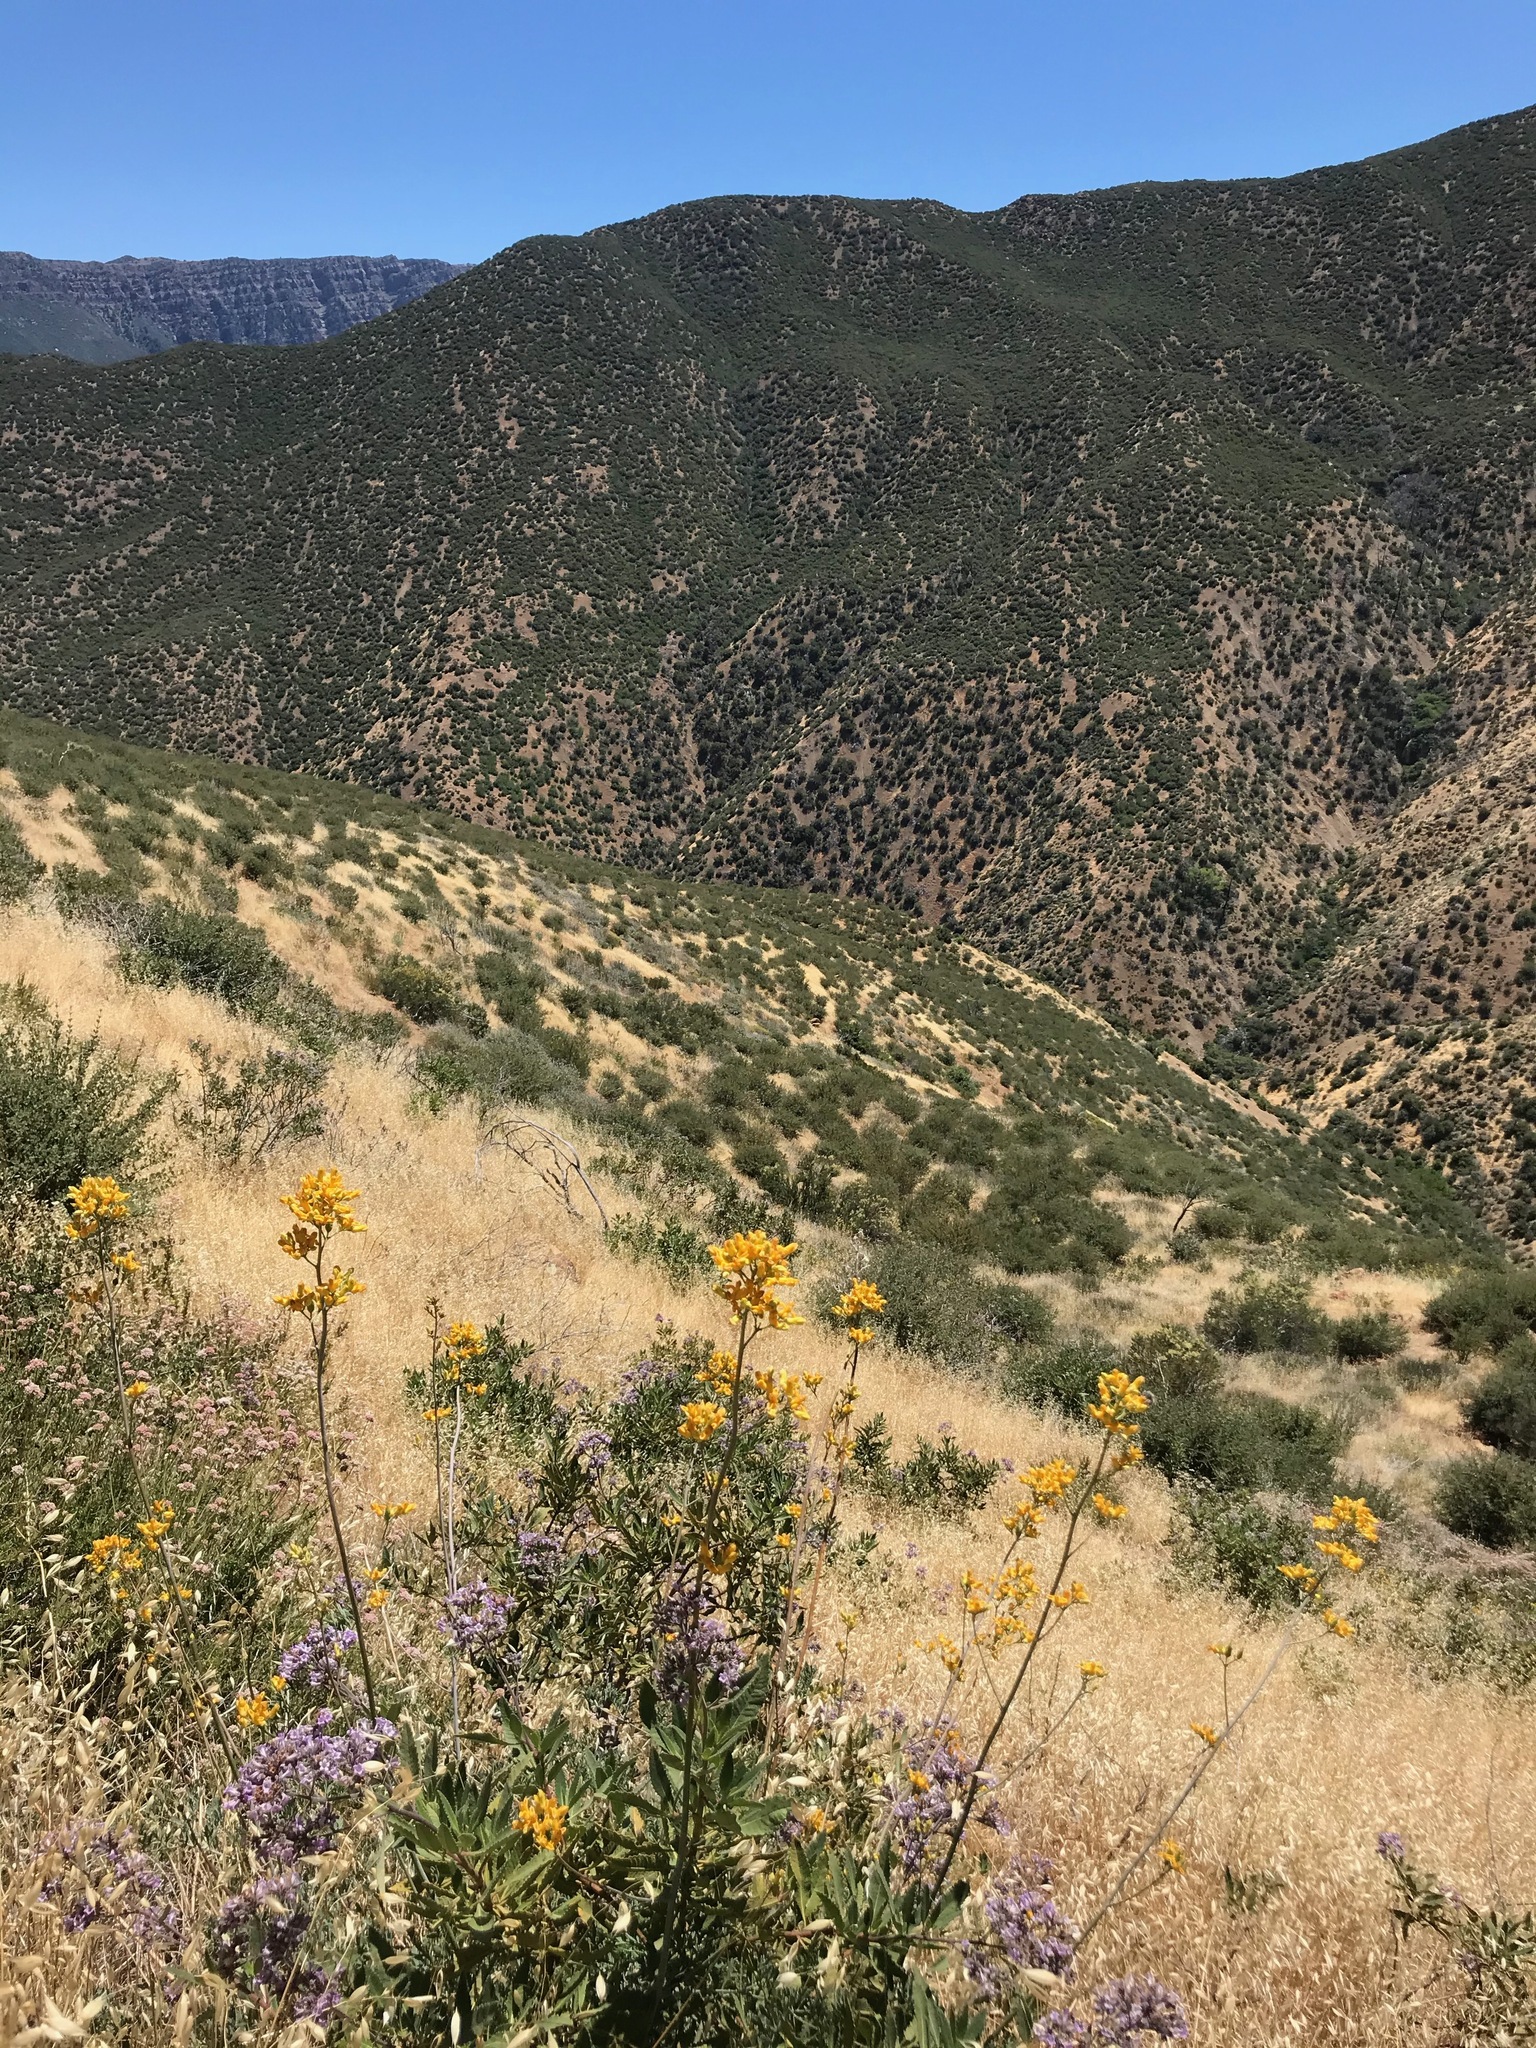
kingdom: Plantae
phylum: Tracheophyta
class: Magnoliopsida
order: Ranunculales
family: Papaveraceae
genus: Ehrendorferia
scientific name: Ehrendorferia chrysantha
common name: Golden eardrops
